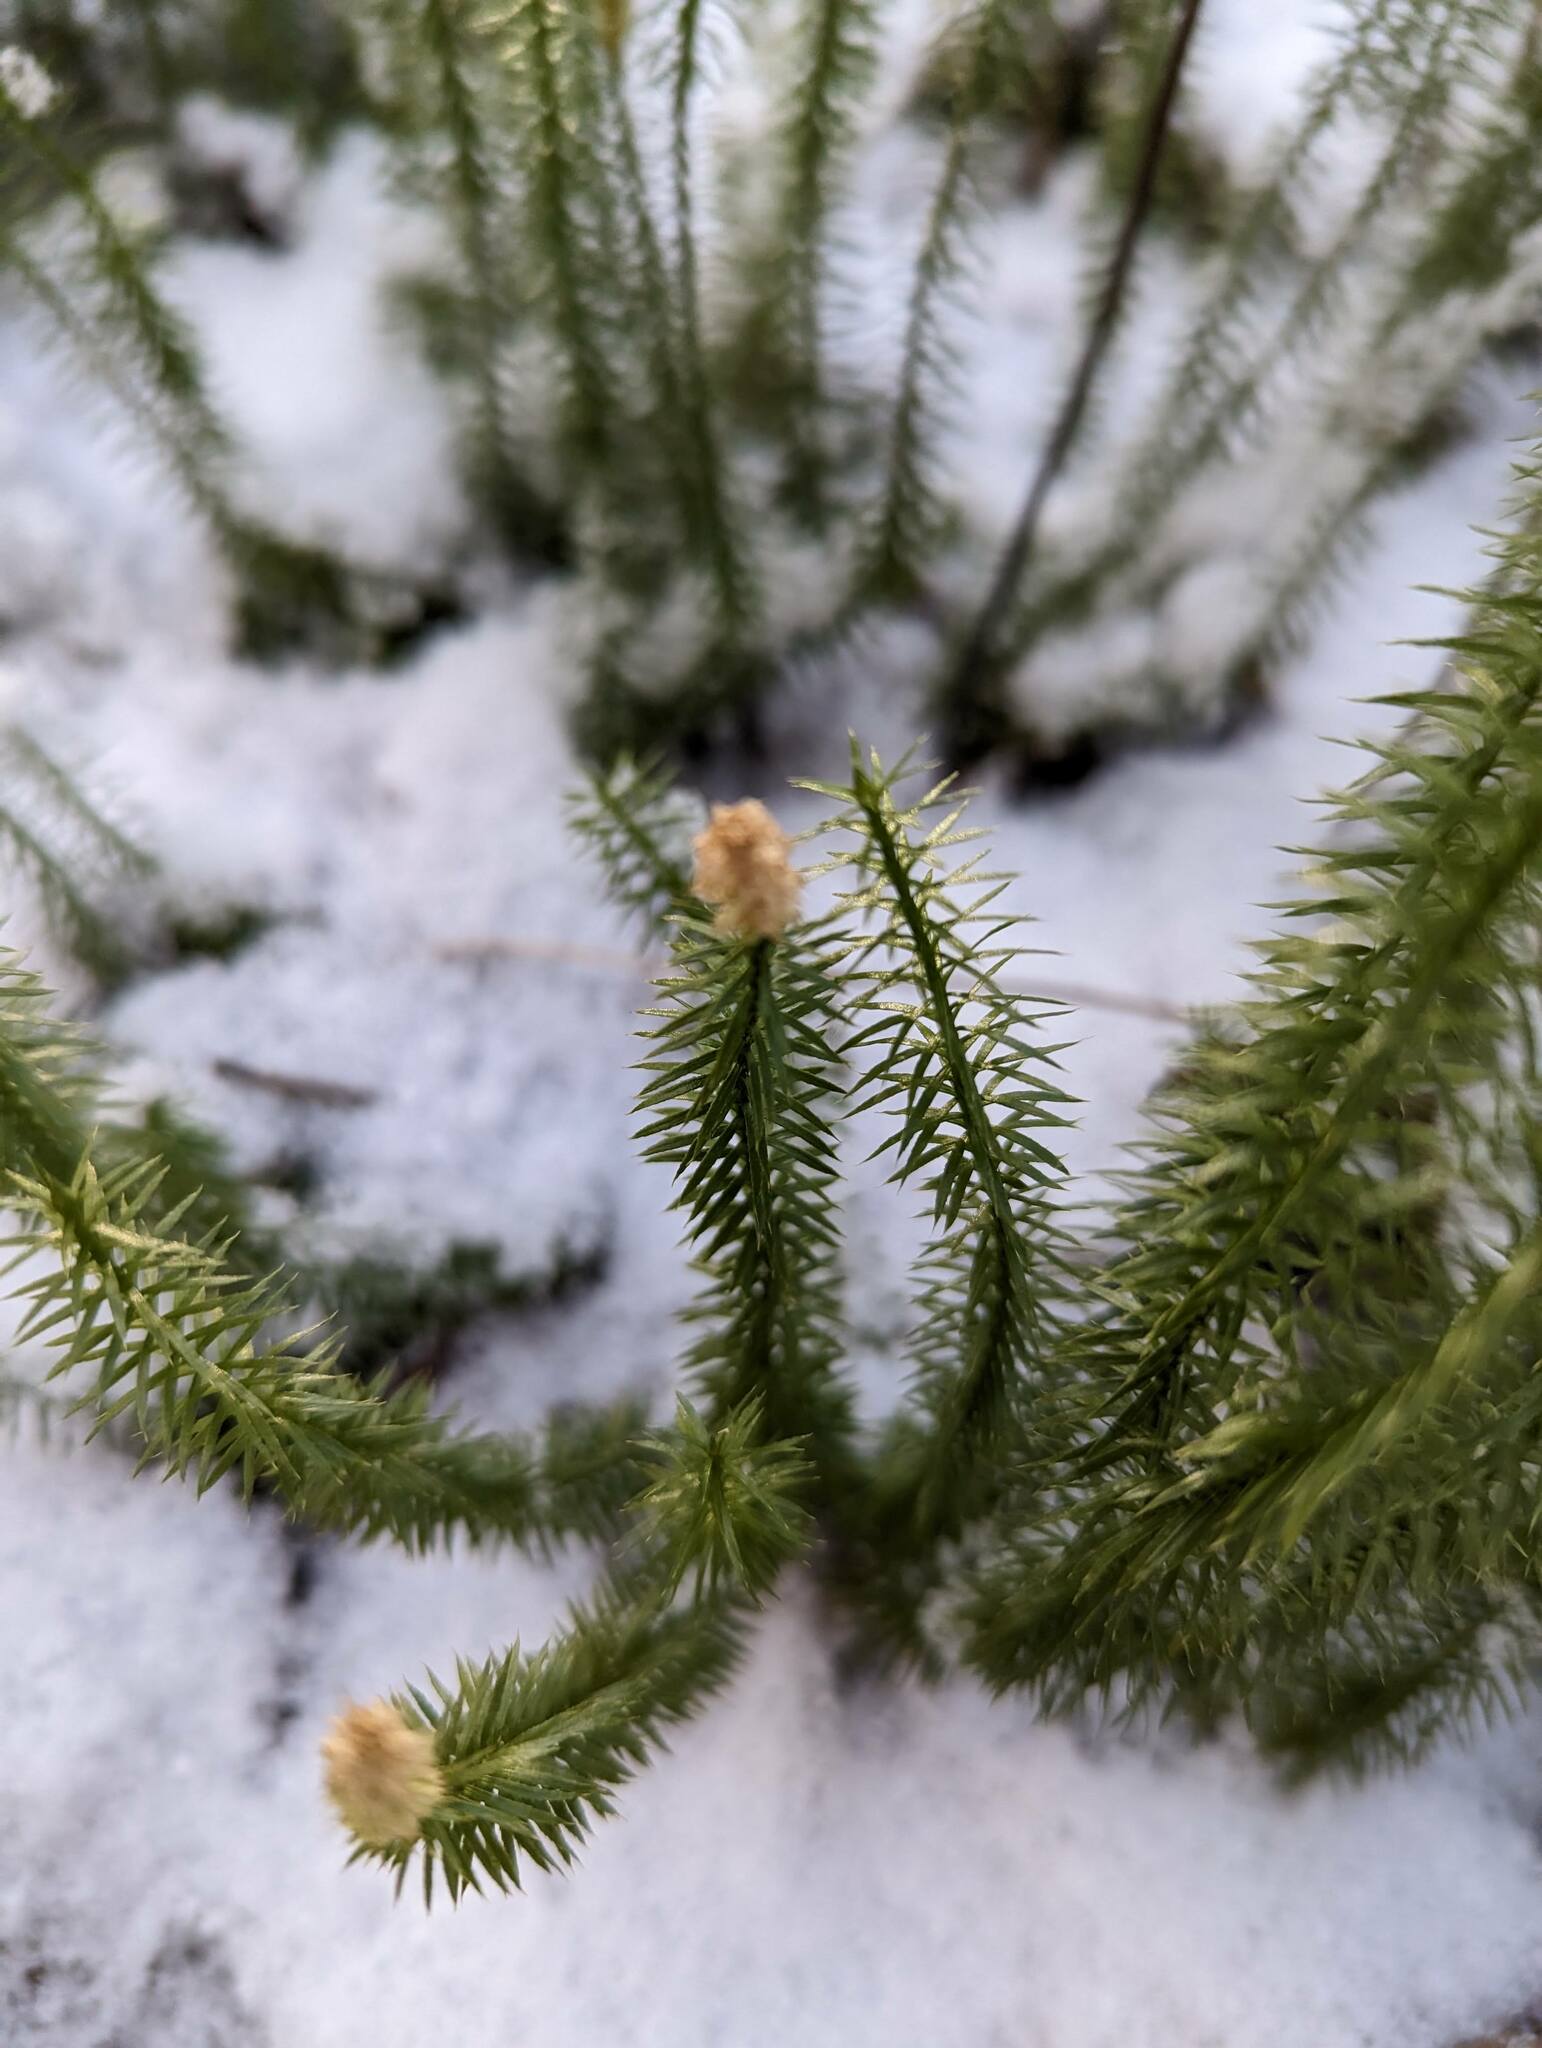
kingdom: Plantae
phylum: Tracheophyta
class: Lycopodiopsida
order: Lycopodiales
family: Lycopodiaceae
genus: Spinulum
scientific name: Spinulum annotinum
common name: Interrupted club-moss
